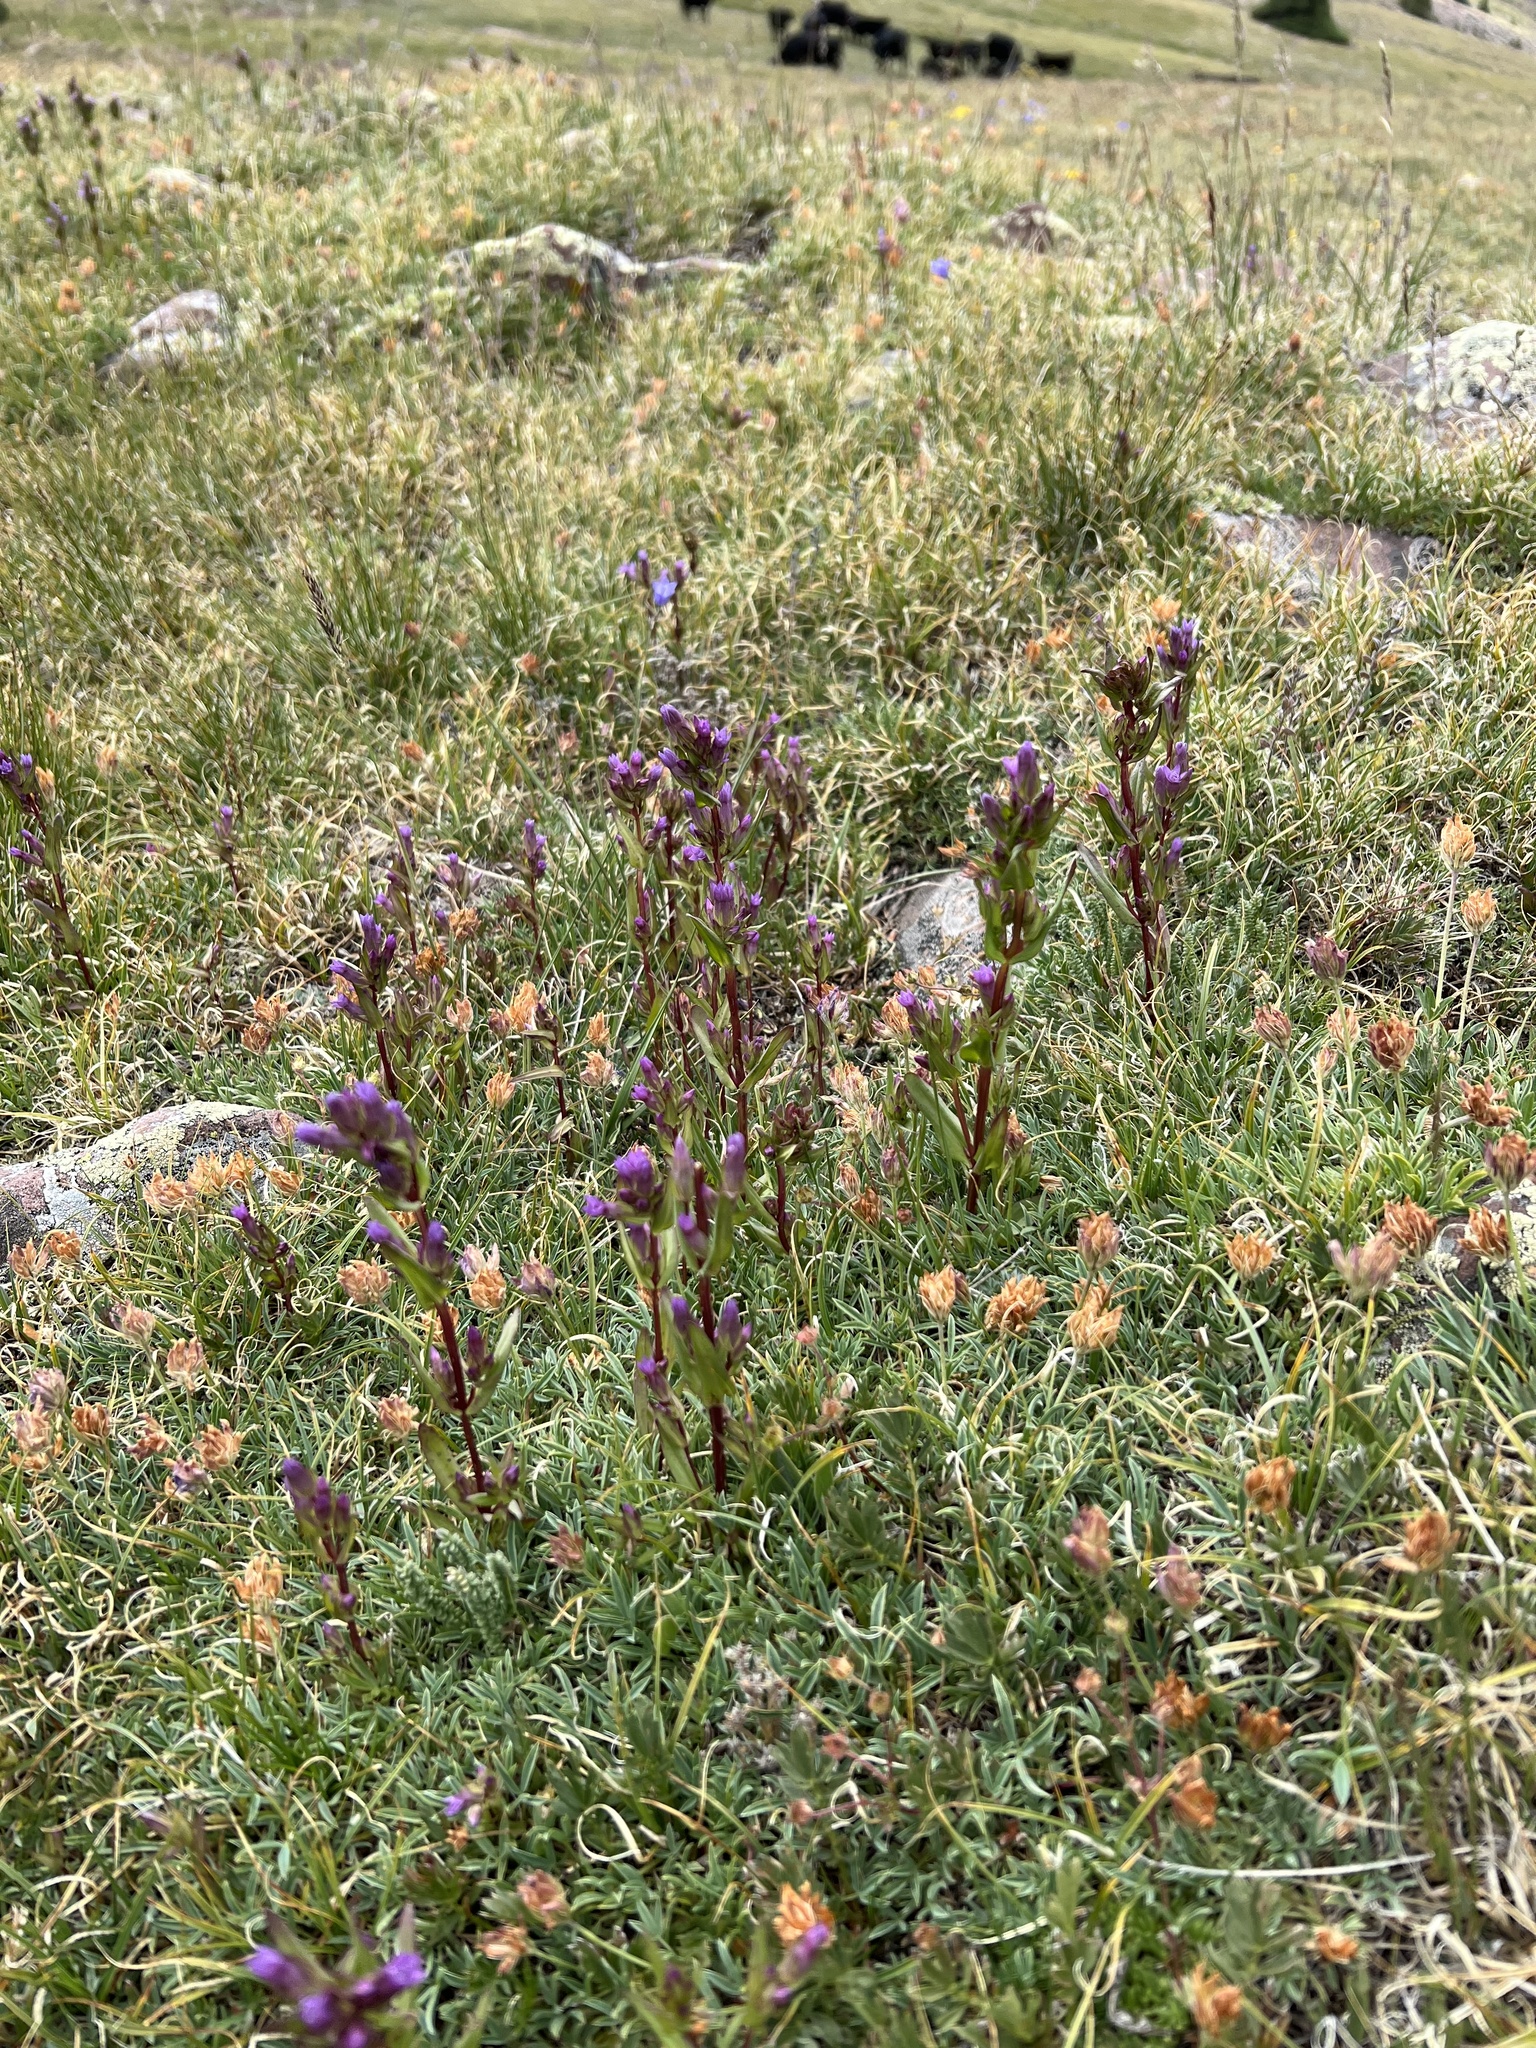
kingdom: Plantae
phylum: Tracheophyta
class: Magnoliopsida
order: Gentianales
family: Gentianaceae
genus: Gentianella
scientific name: Gentianella amarella
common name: Autumn gentian
